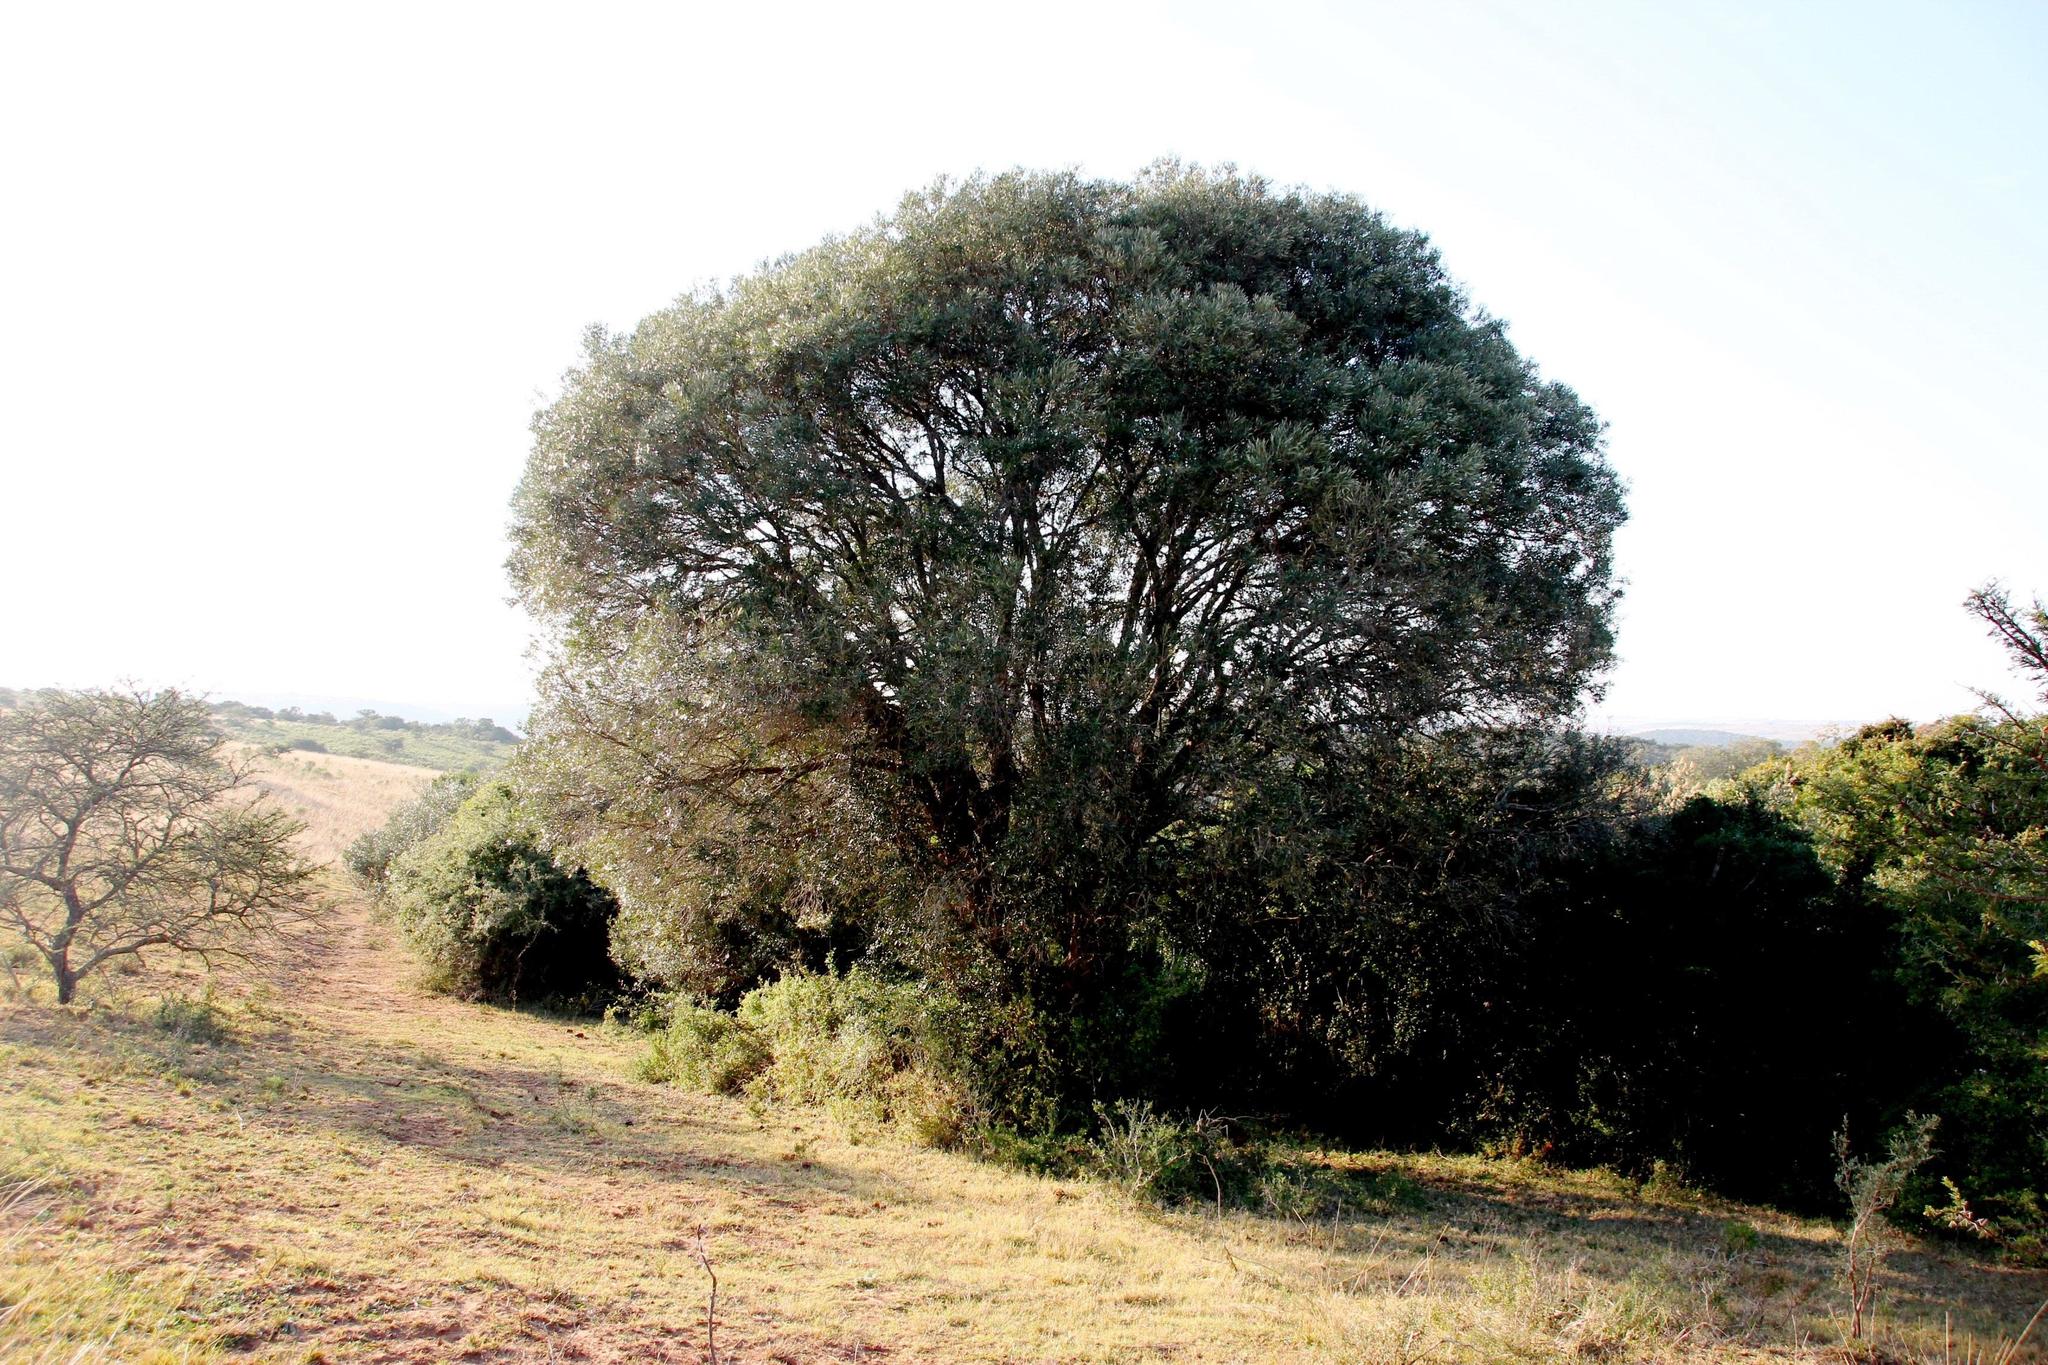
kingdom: Plantae
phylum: Tracheophyta
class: Magnoliopsida
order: Lamiales
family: Oleaceae
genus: Olea
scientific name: Olea europaea
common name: Olive
